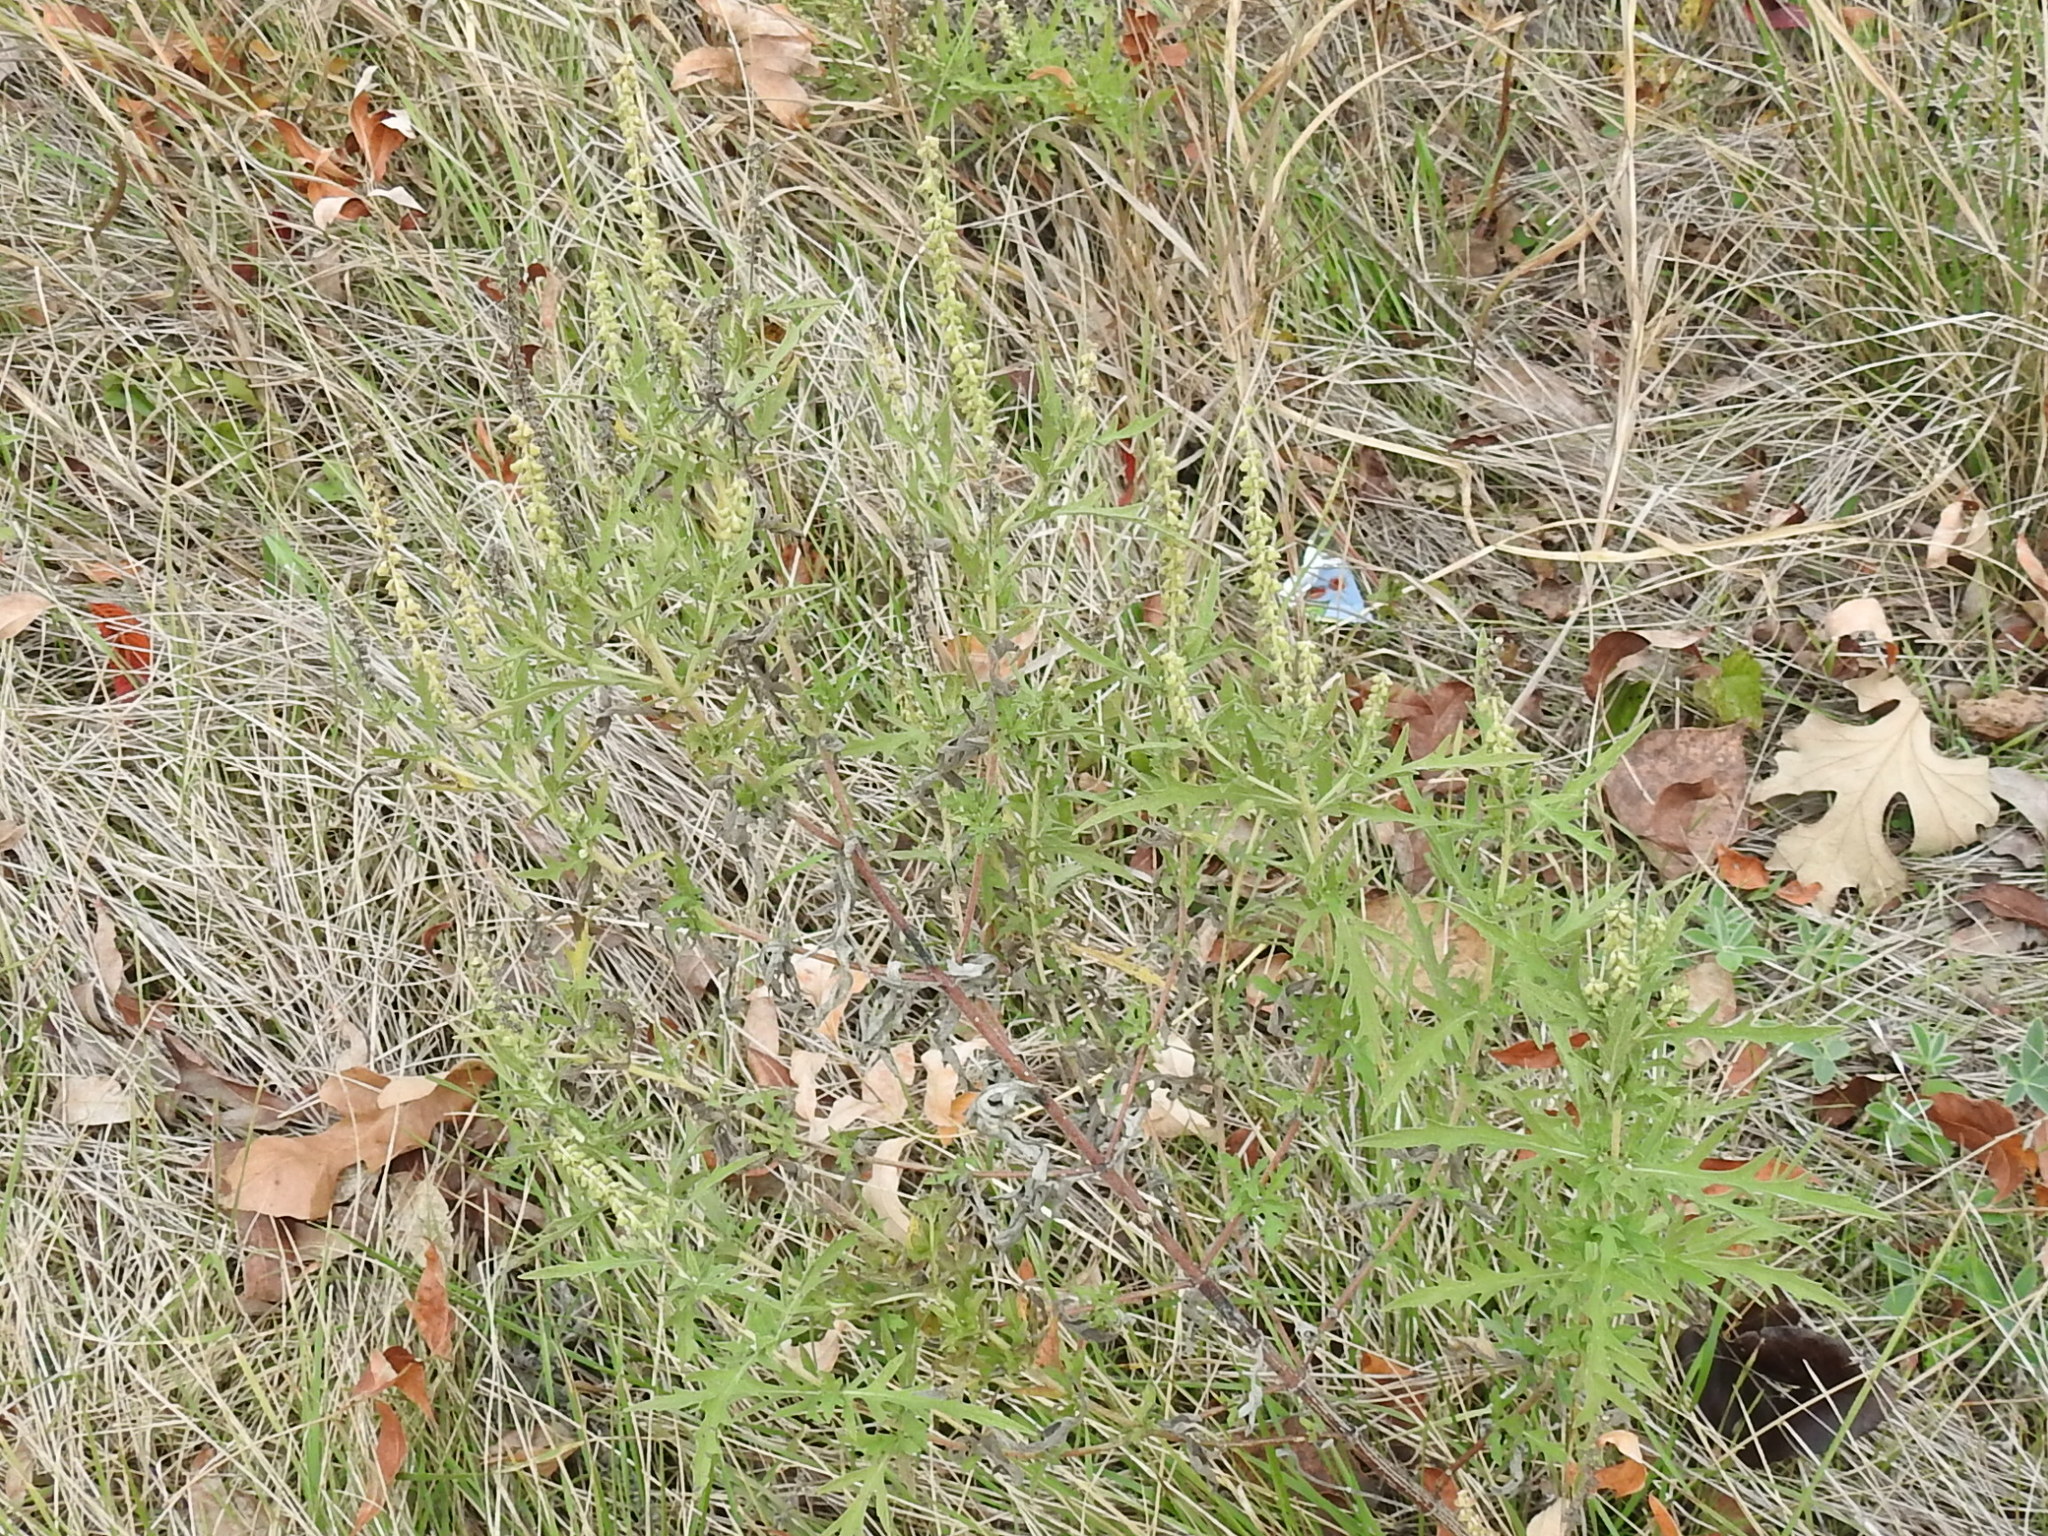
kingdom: Plantae
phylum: Tracheophyta
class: Magnoliopsida
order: Asterales
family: Asteraceae
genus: Ambrosia
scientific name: Ambrosia psilostachya
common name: Perennial ragweed
